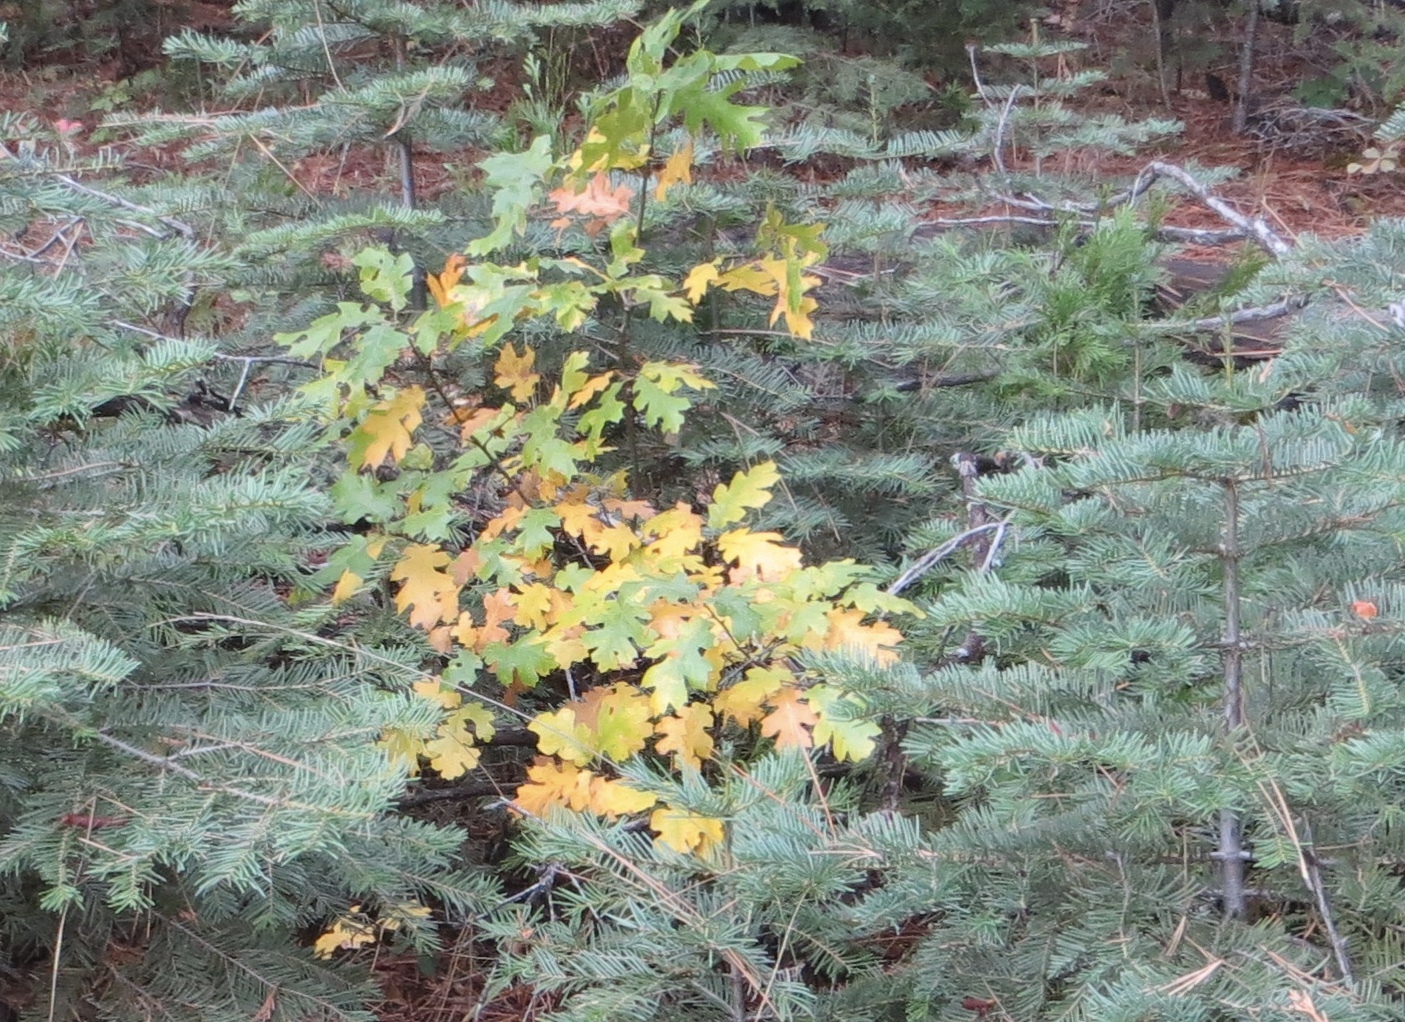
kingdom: Plantae
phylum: Tracheophyta
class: Magnoliopsida
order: Fagales
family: Fagaceae
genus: Quercus
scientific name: Quercus kelloggii
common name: California black oak
